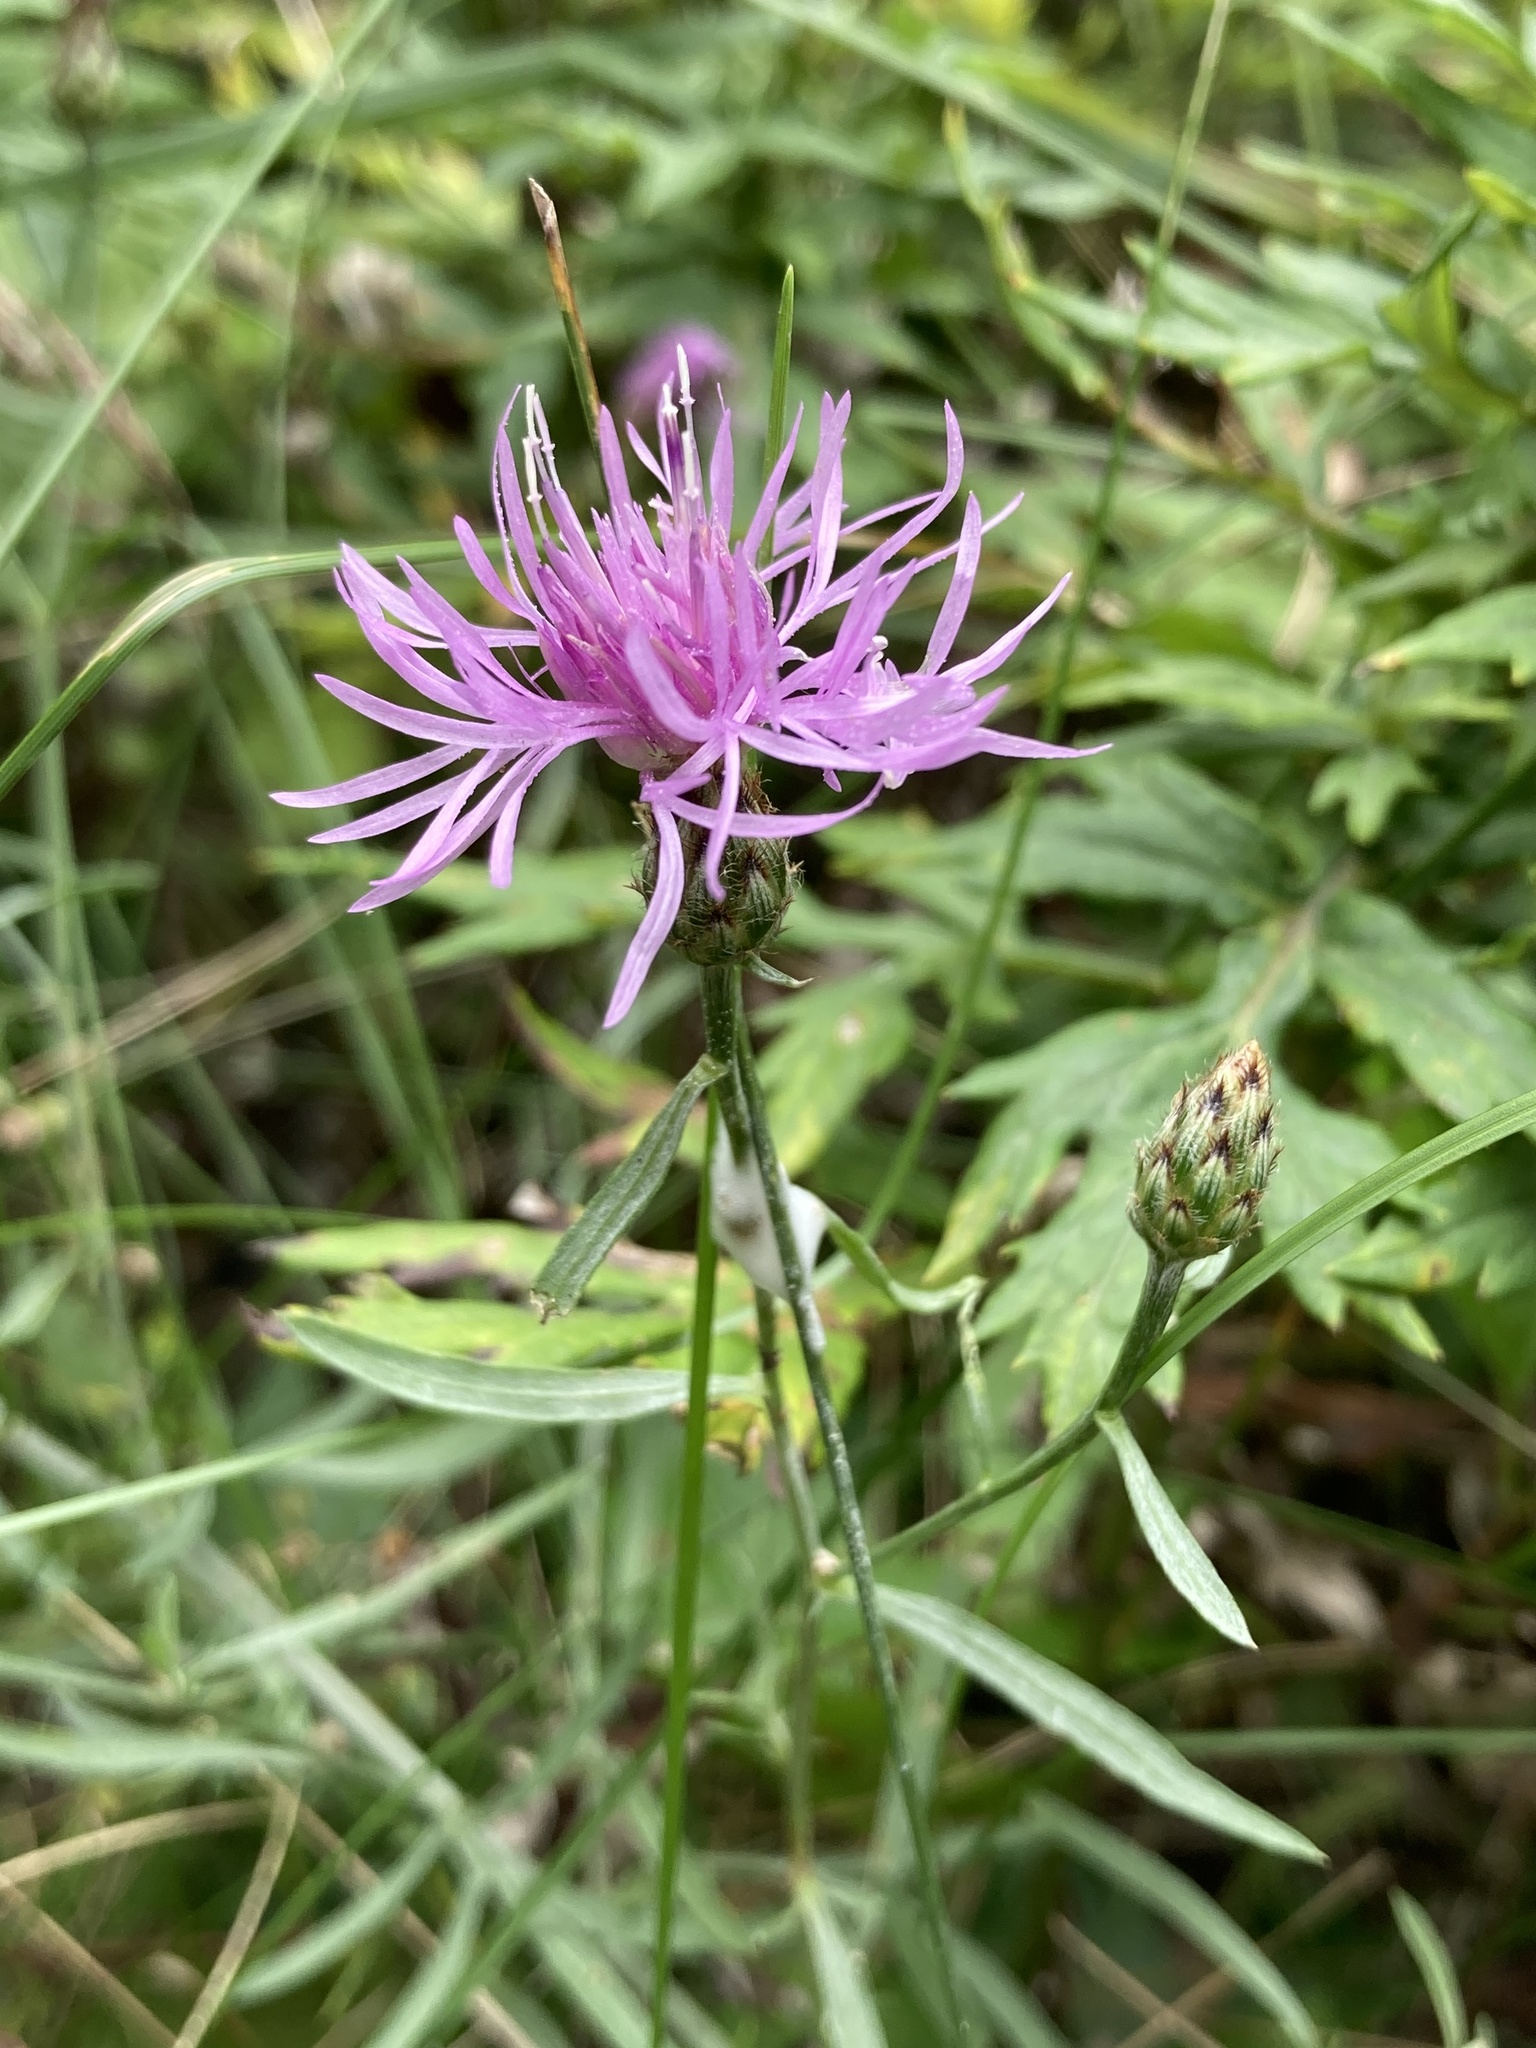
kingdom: Plantae
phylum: Tracheophyta
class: Magnoliopsida
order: Asterales
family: Asteraceae
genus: Centaurea
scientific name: Centaurea stoebe
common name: Spotted knapweed
